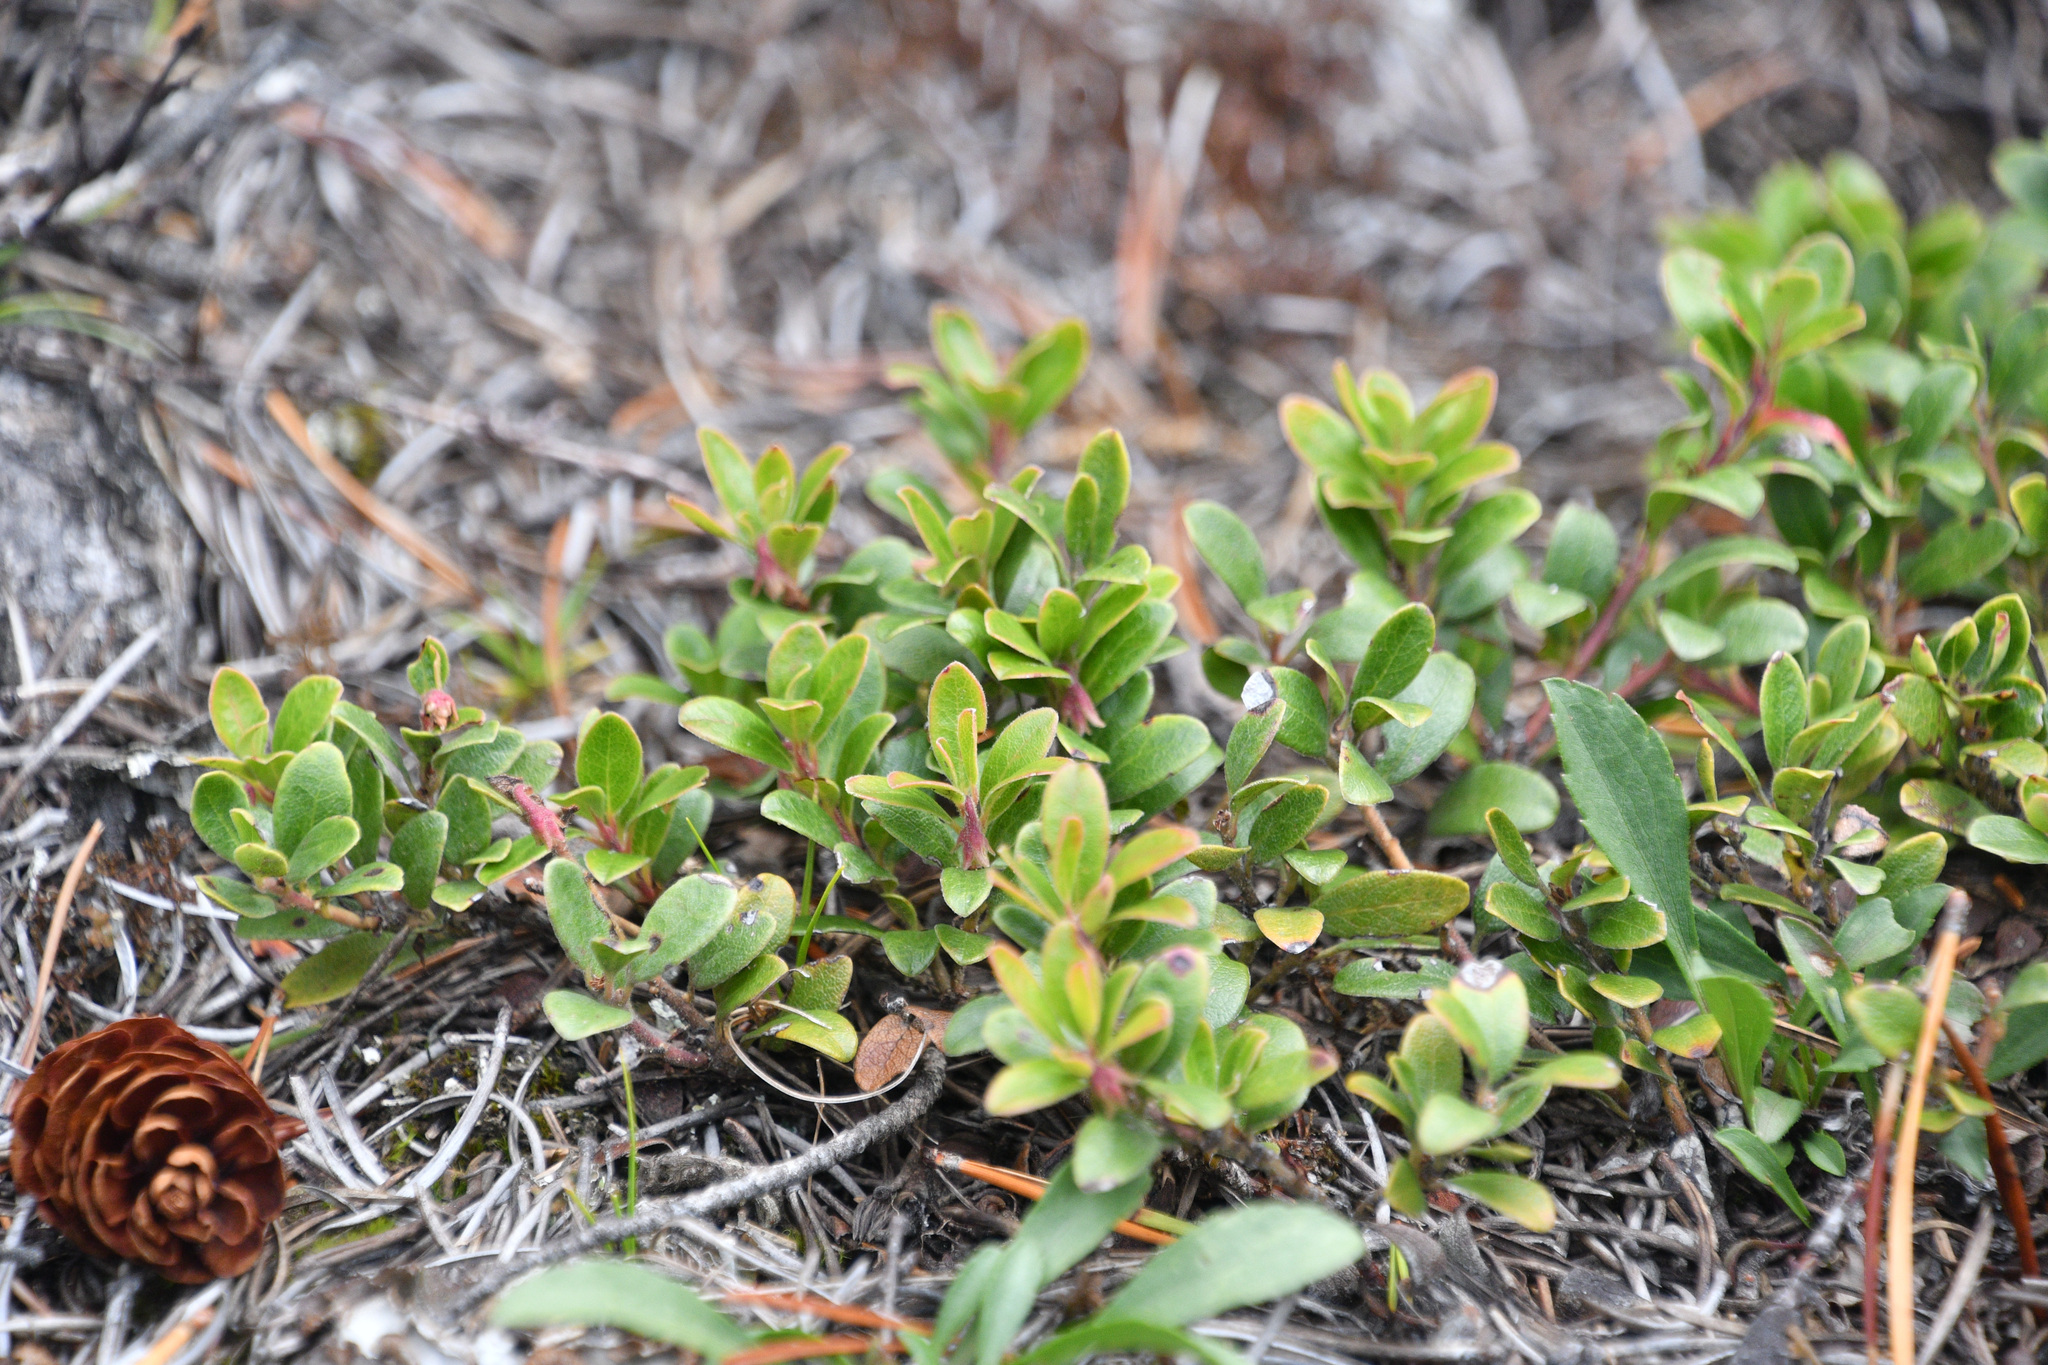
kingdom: Plantae
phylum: Tracheophyta
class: Magnoliopsida
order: Ericales
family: Ericaceae
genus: Arctostaphylos
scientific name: Arctostaphylos uva-ursi
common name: Bearberry
